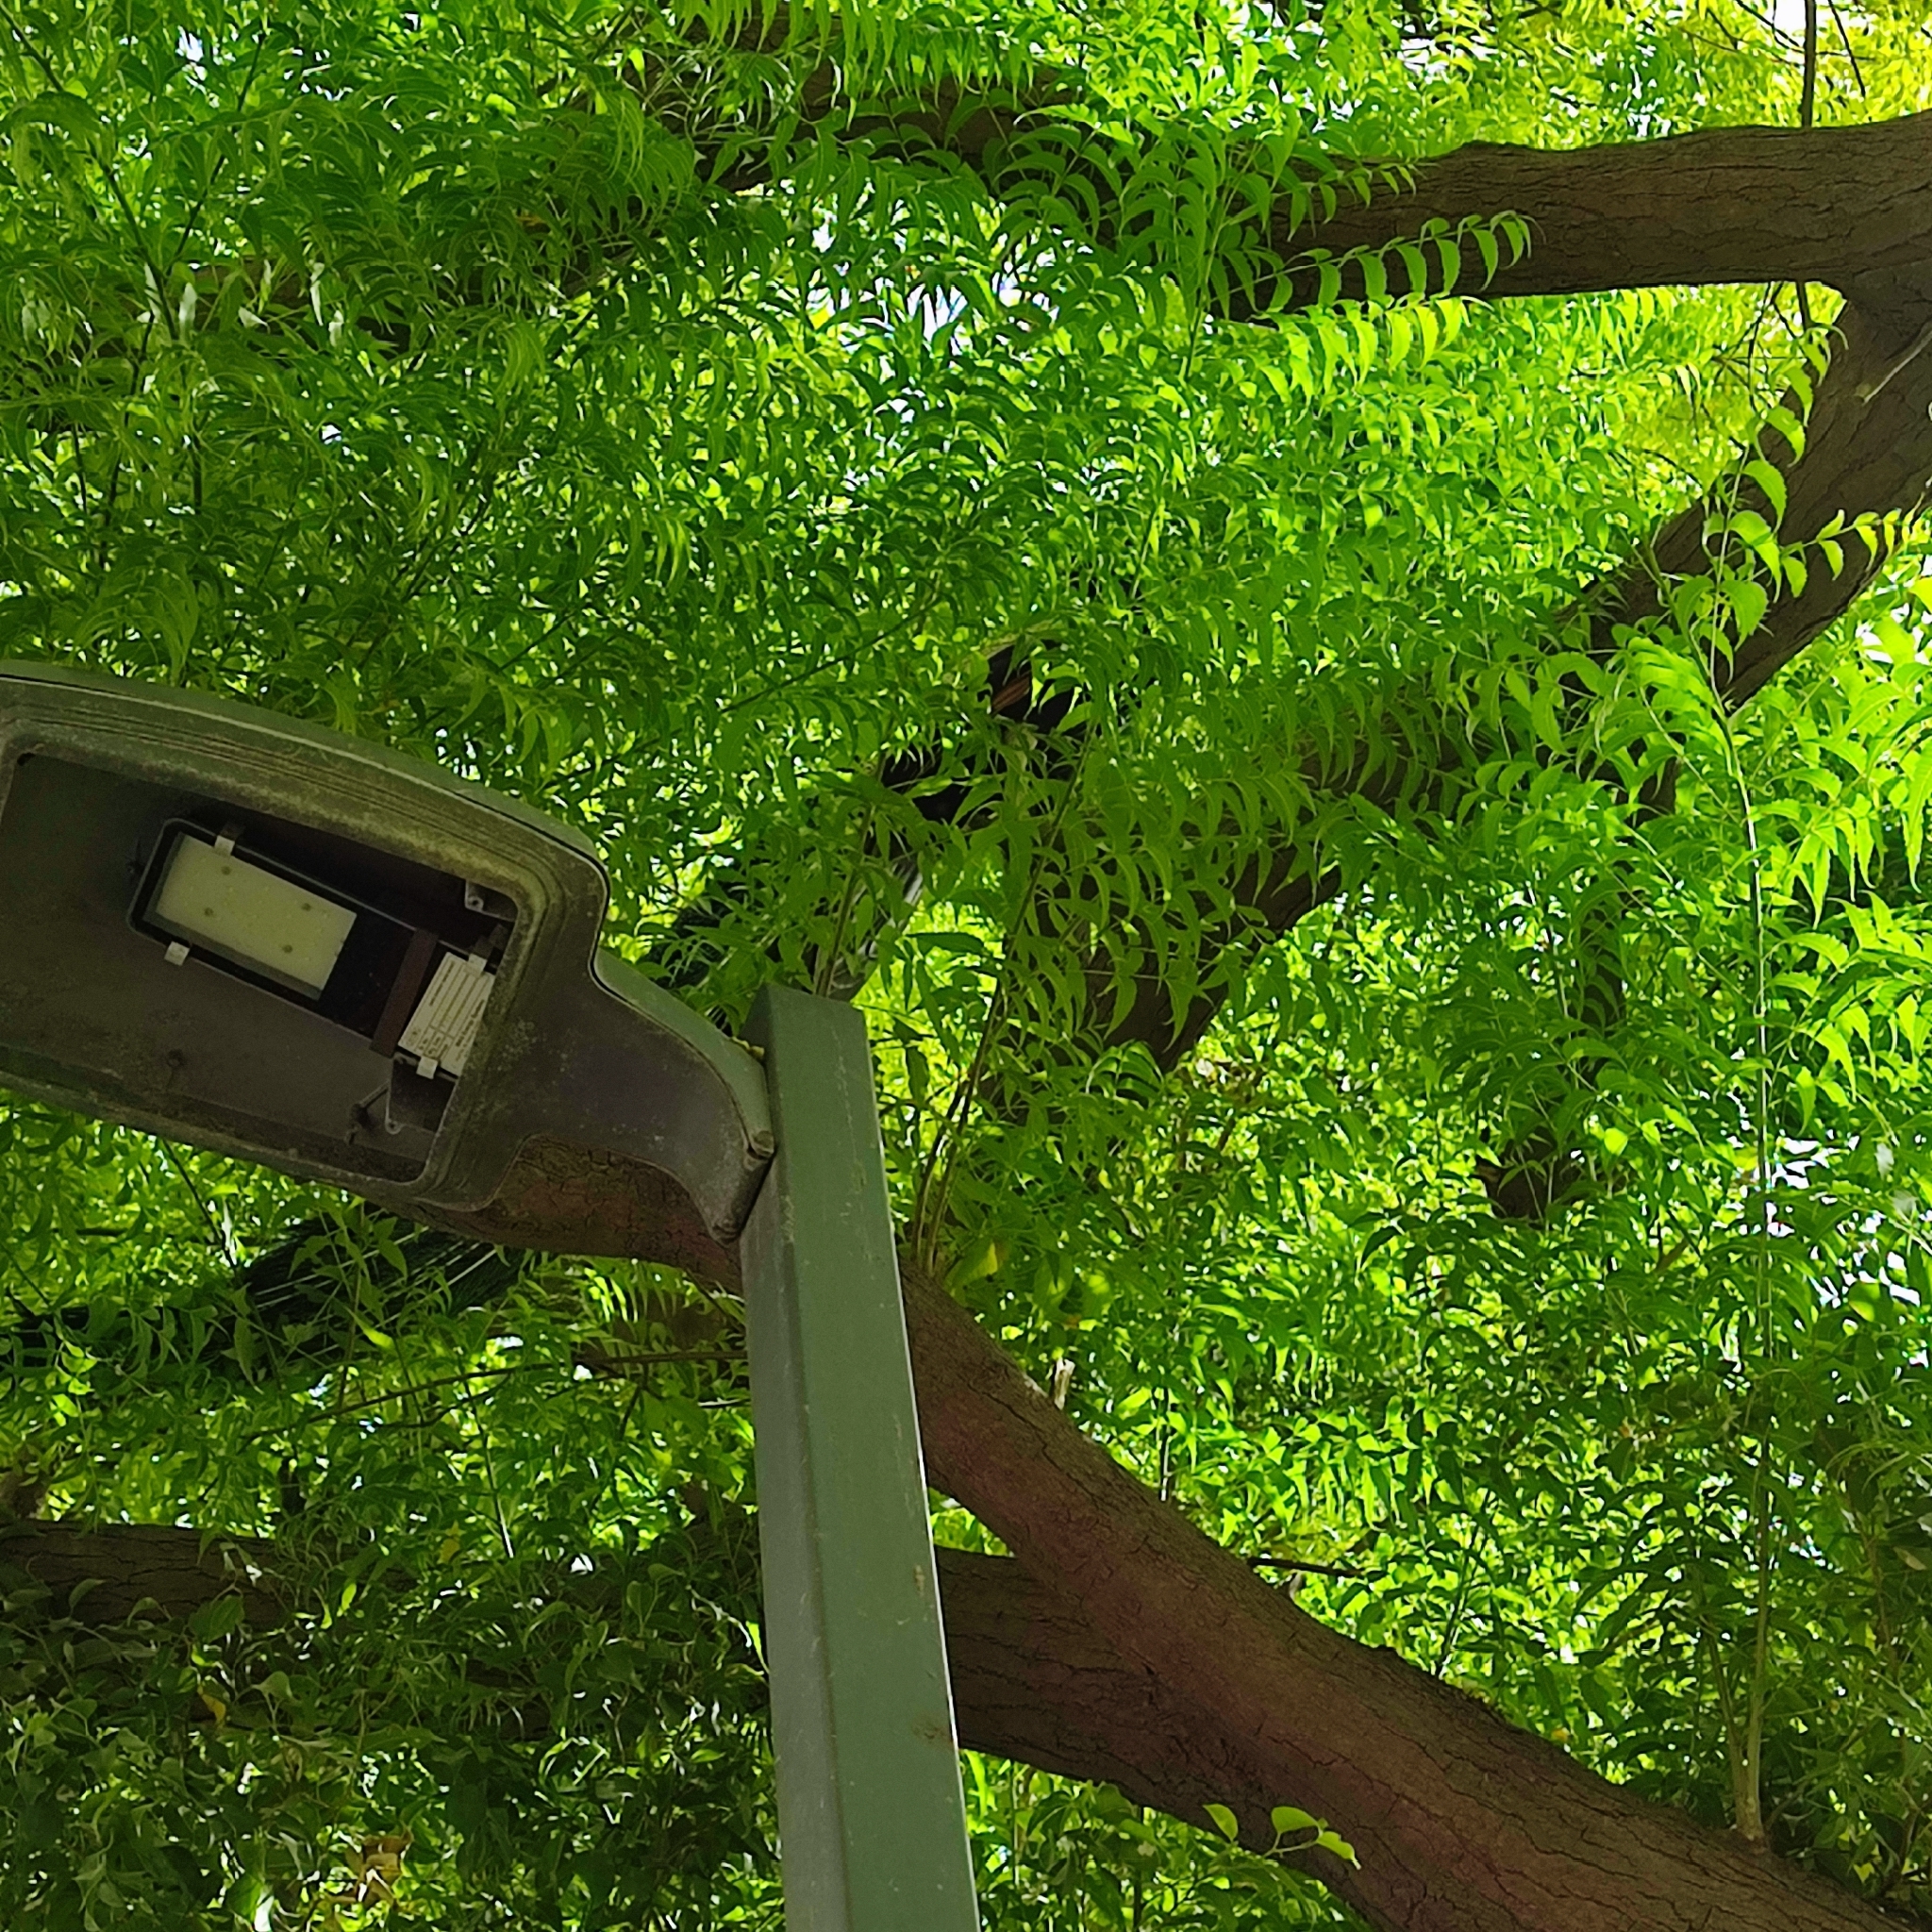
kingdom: Animalia
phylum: Chordata
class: Aves
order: Galliformes
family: Phasianidae
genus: Pavo
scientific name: Pavo cristatus
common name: Indian peafowl
